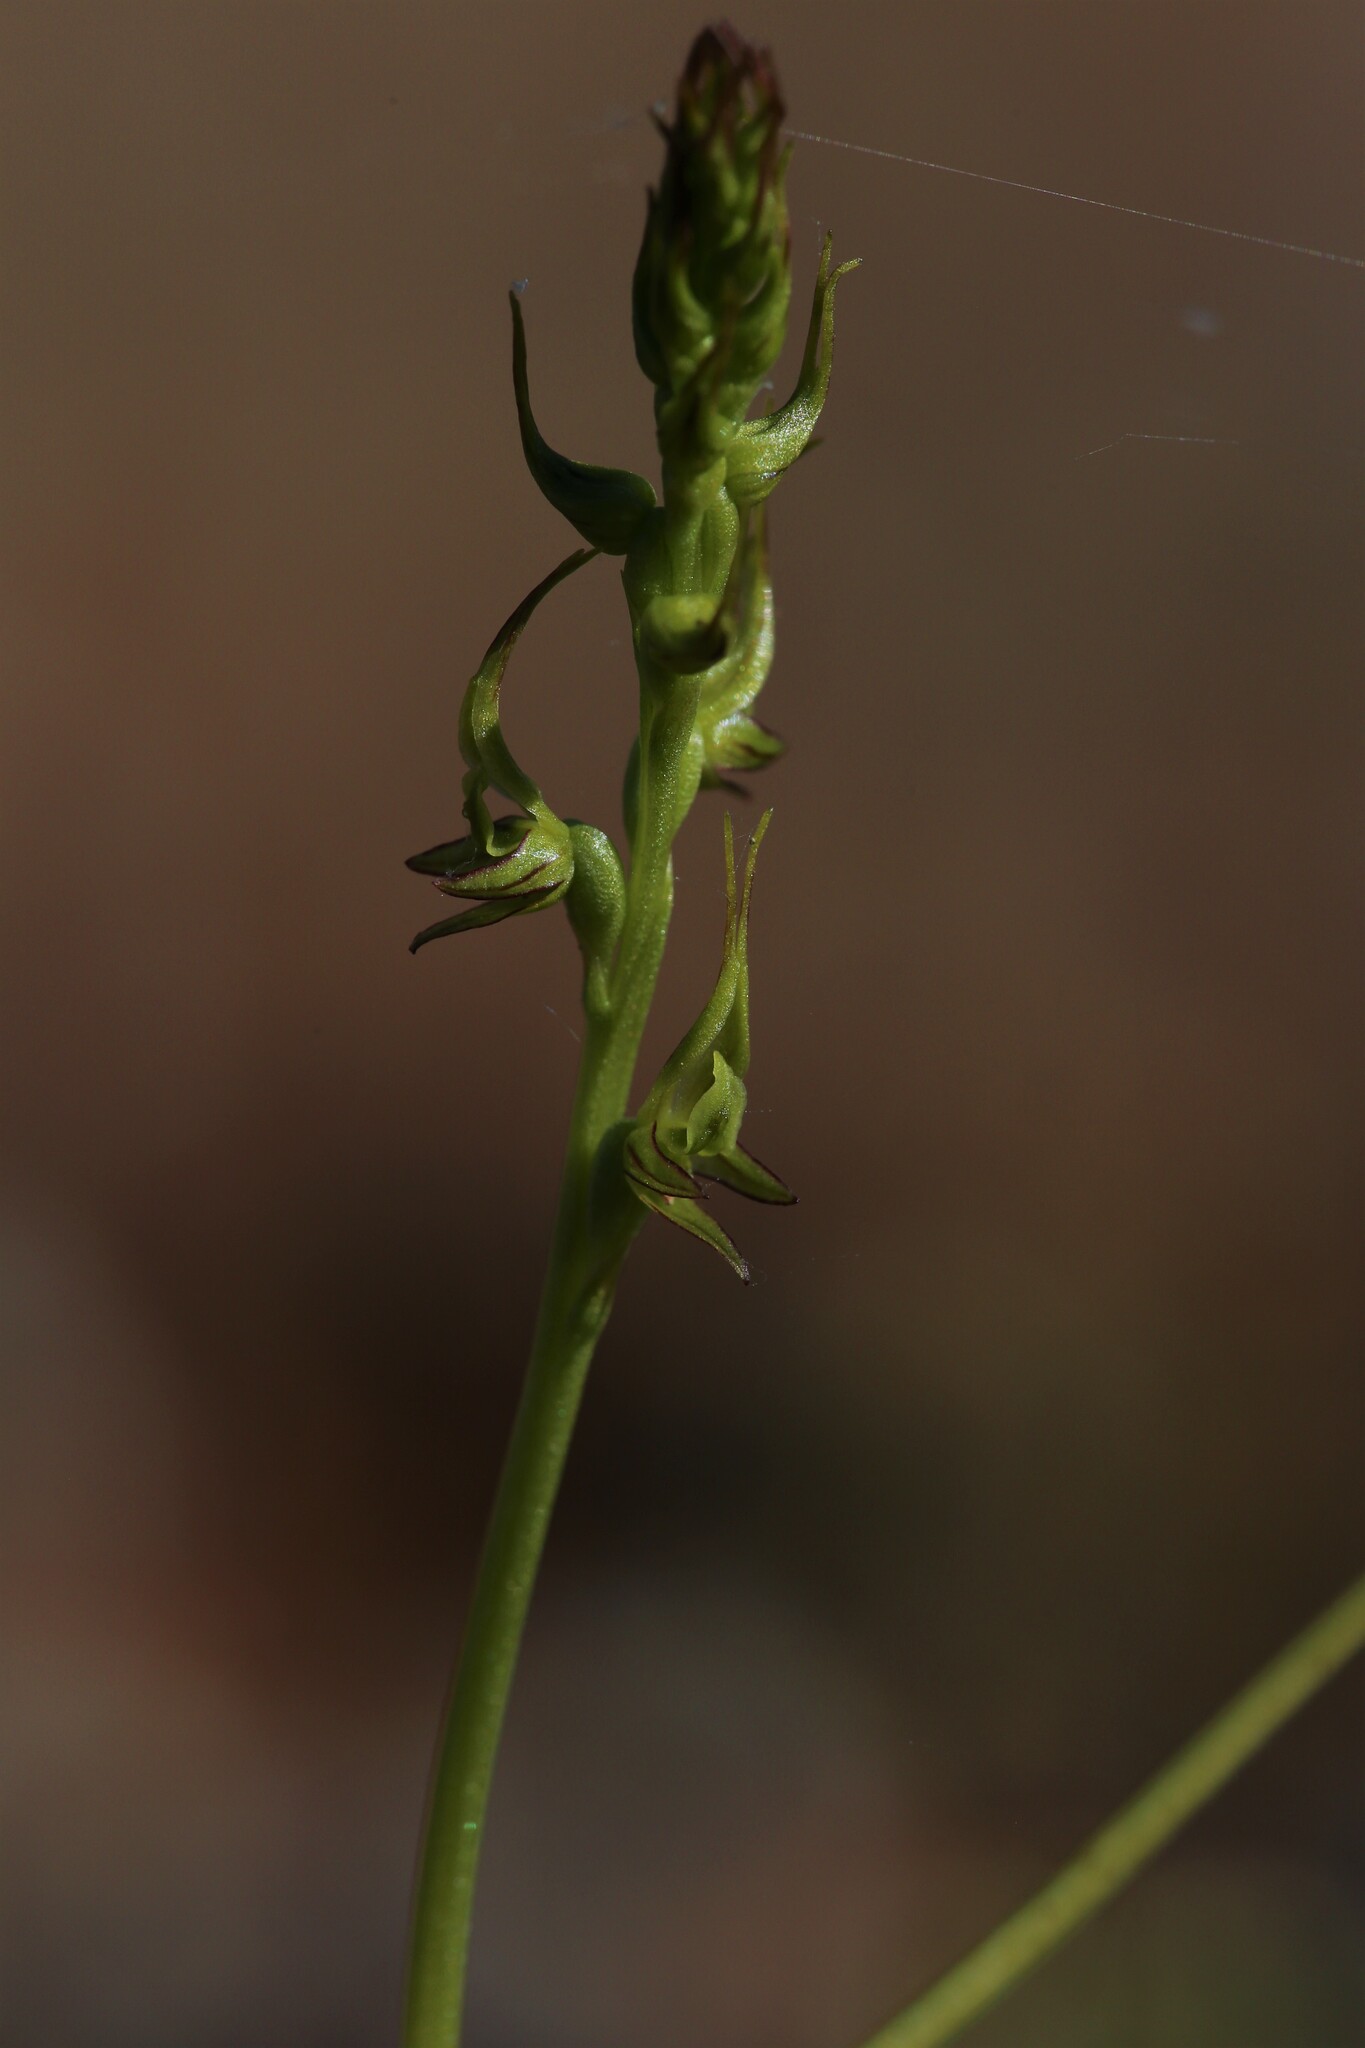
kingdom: Plantae
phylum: Tracheophyta
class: Liliopsida
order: Asparagales
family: Orchidaceae
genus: Prasophyllum
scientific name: Prasophyllum gracile
